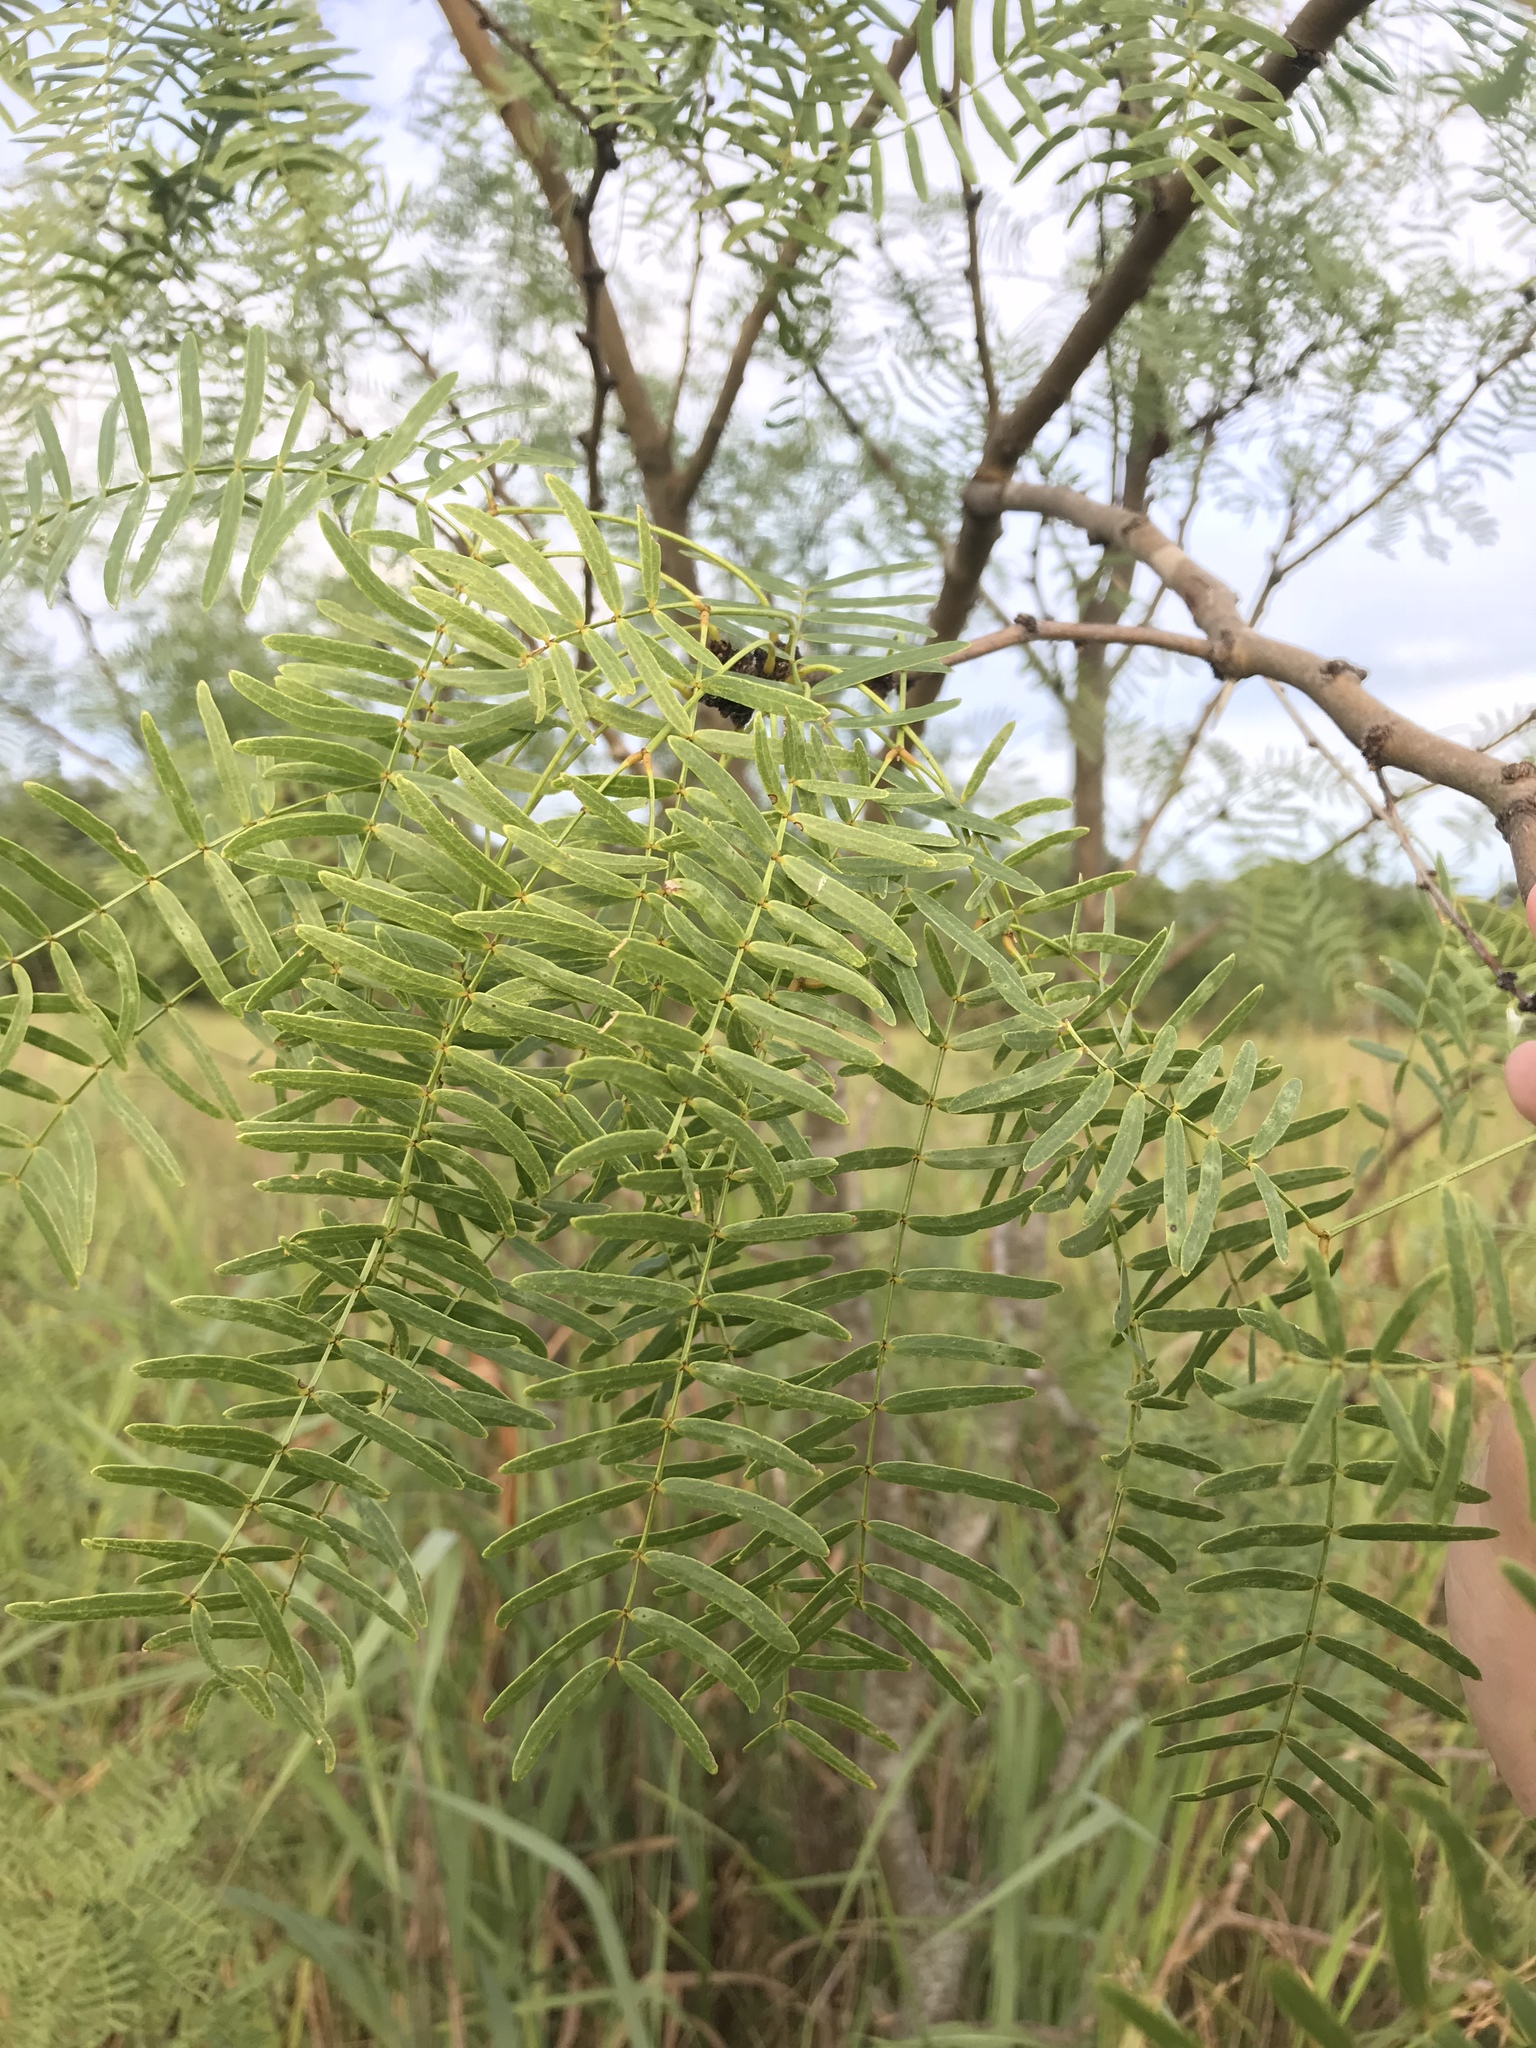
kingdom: Plantae
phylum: Tracheophyta
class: Magnoliopsida
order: Fabales
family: Fabaceae
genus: Prosopis
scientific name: Prosopis glandulosa
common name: Honey mesquite
